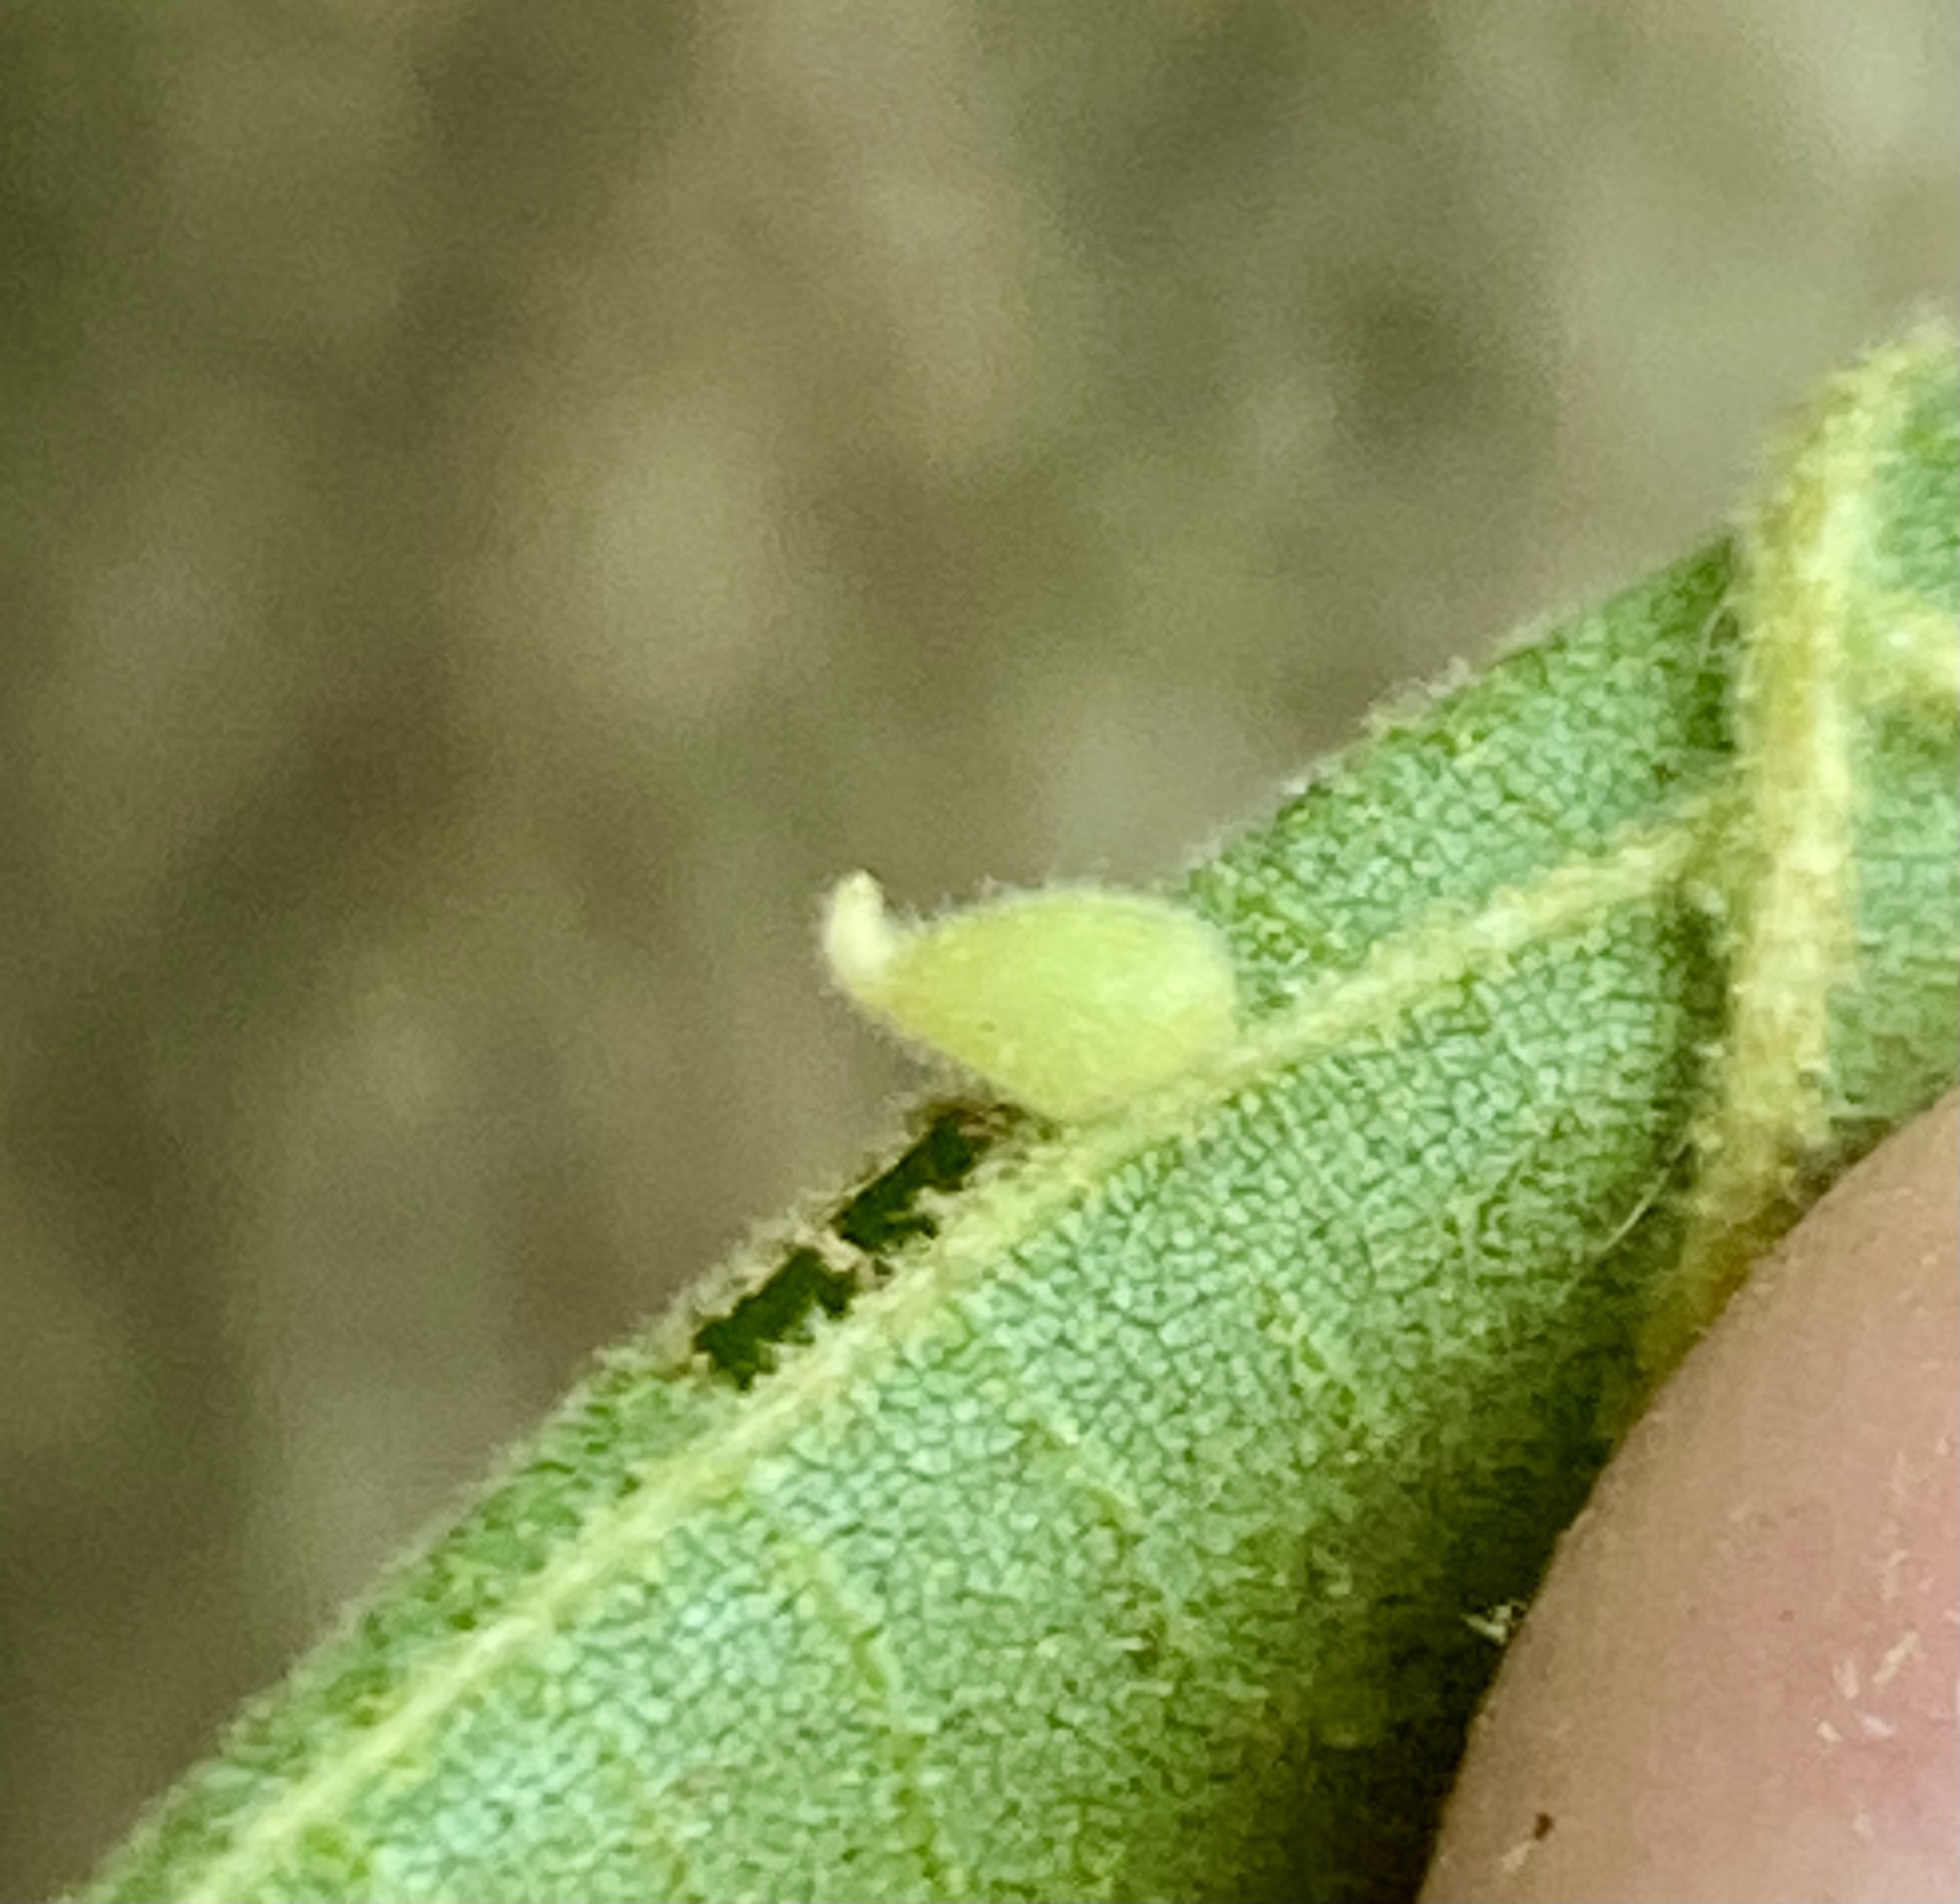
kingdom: Animalia
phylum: Arthropoda
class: Insecta
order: Diptera
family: Cecidomyiidae
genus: Caryomyia
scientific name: Caryomyia eumaris
